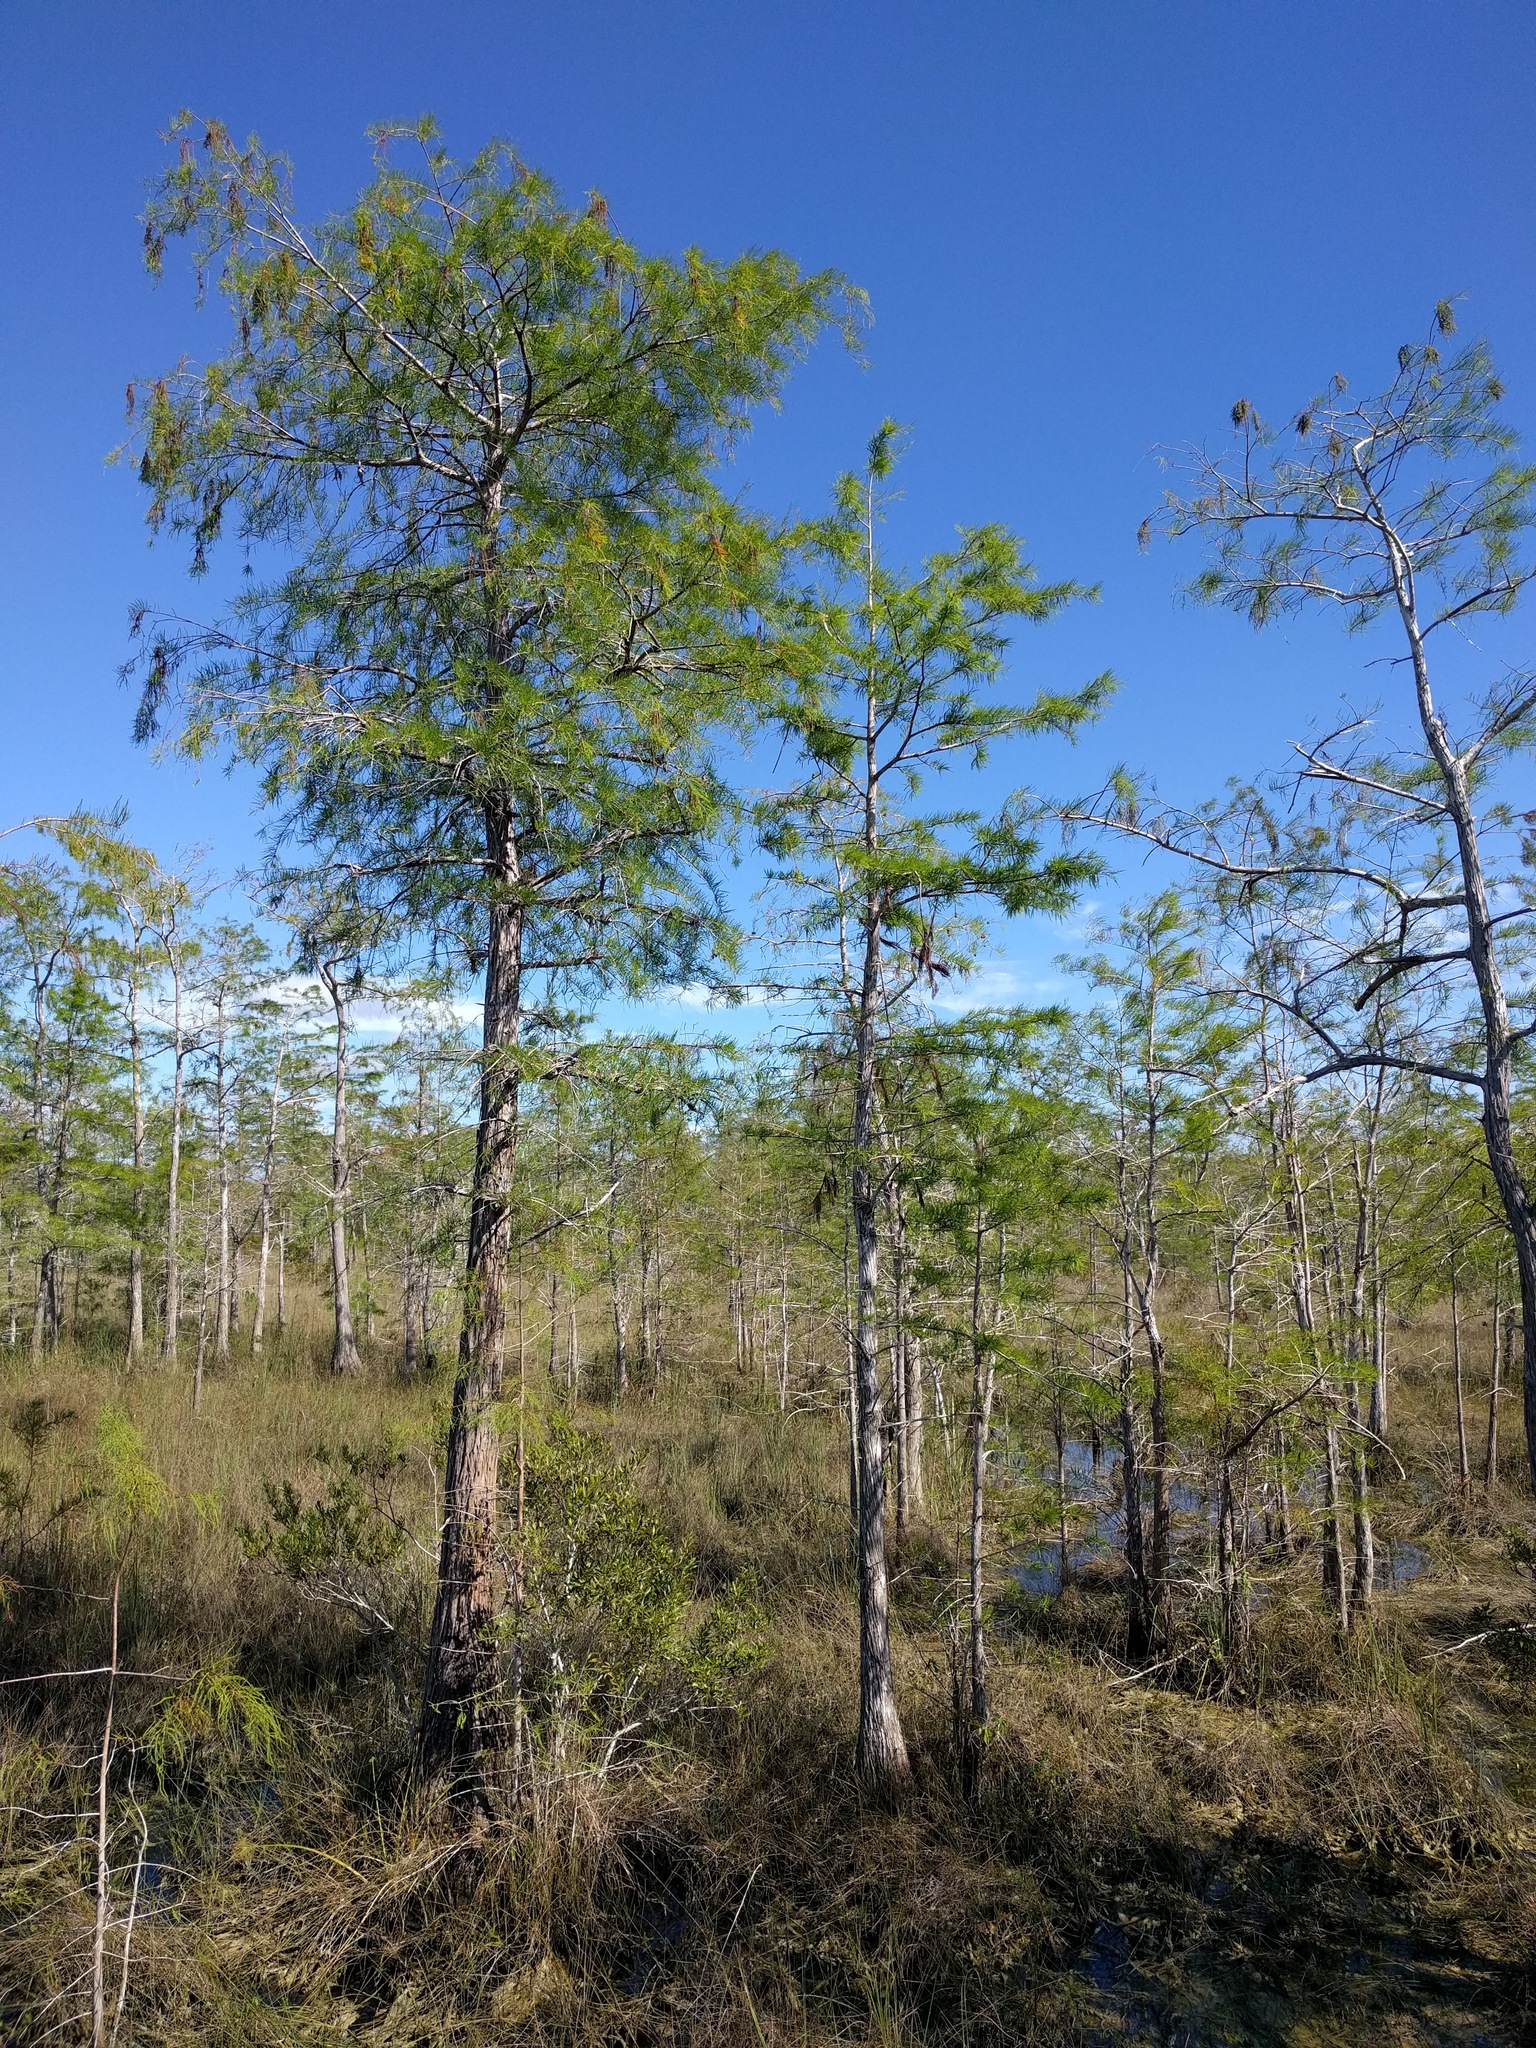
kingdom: Plantae
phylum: Tracheophyta
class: Pinopsida
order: Pinales
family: Cupressaceae
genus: Taxodium
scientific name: Taxodium distichum
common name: Bald cypress
